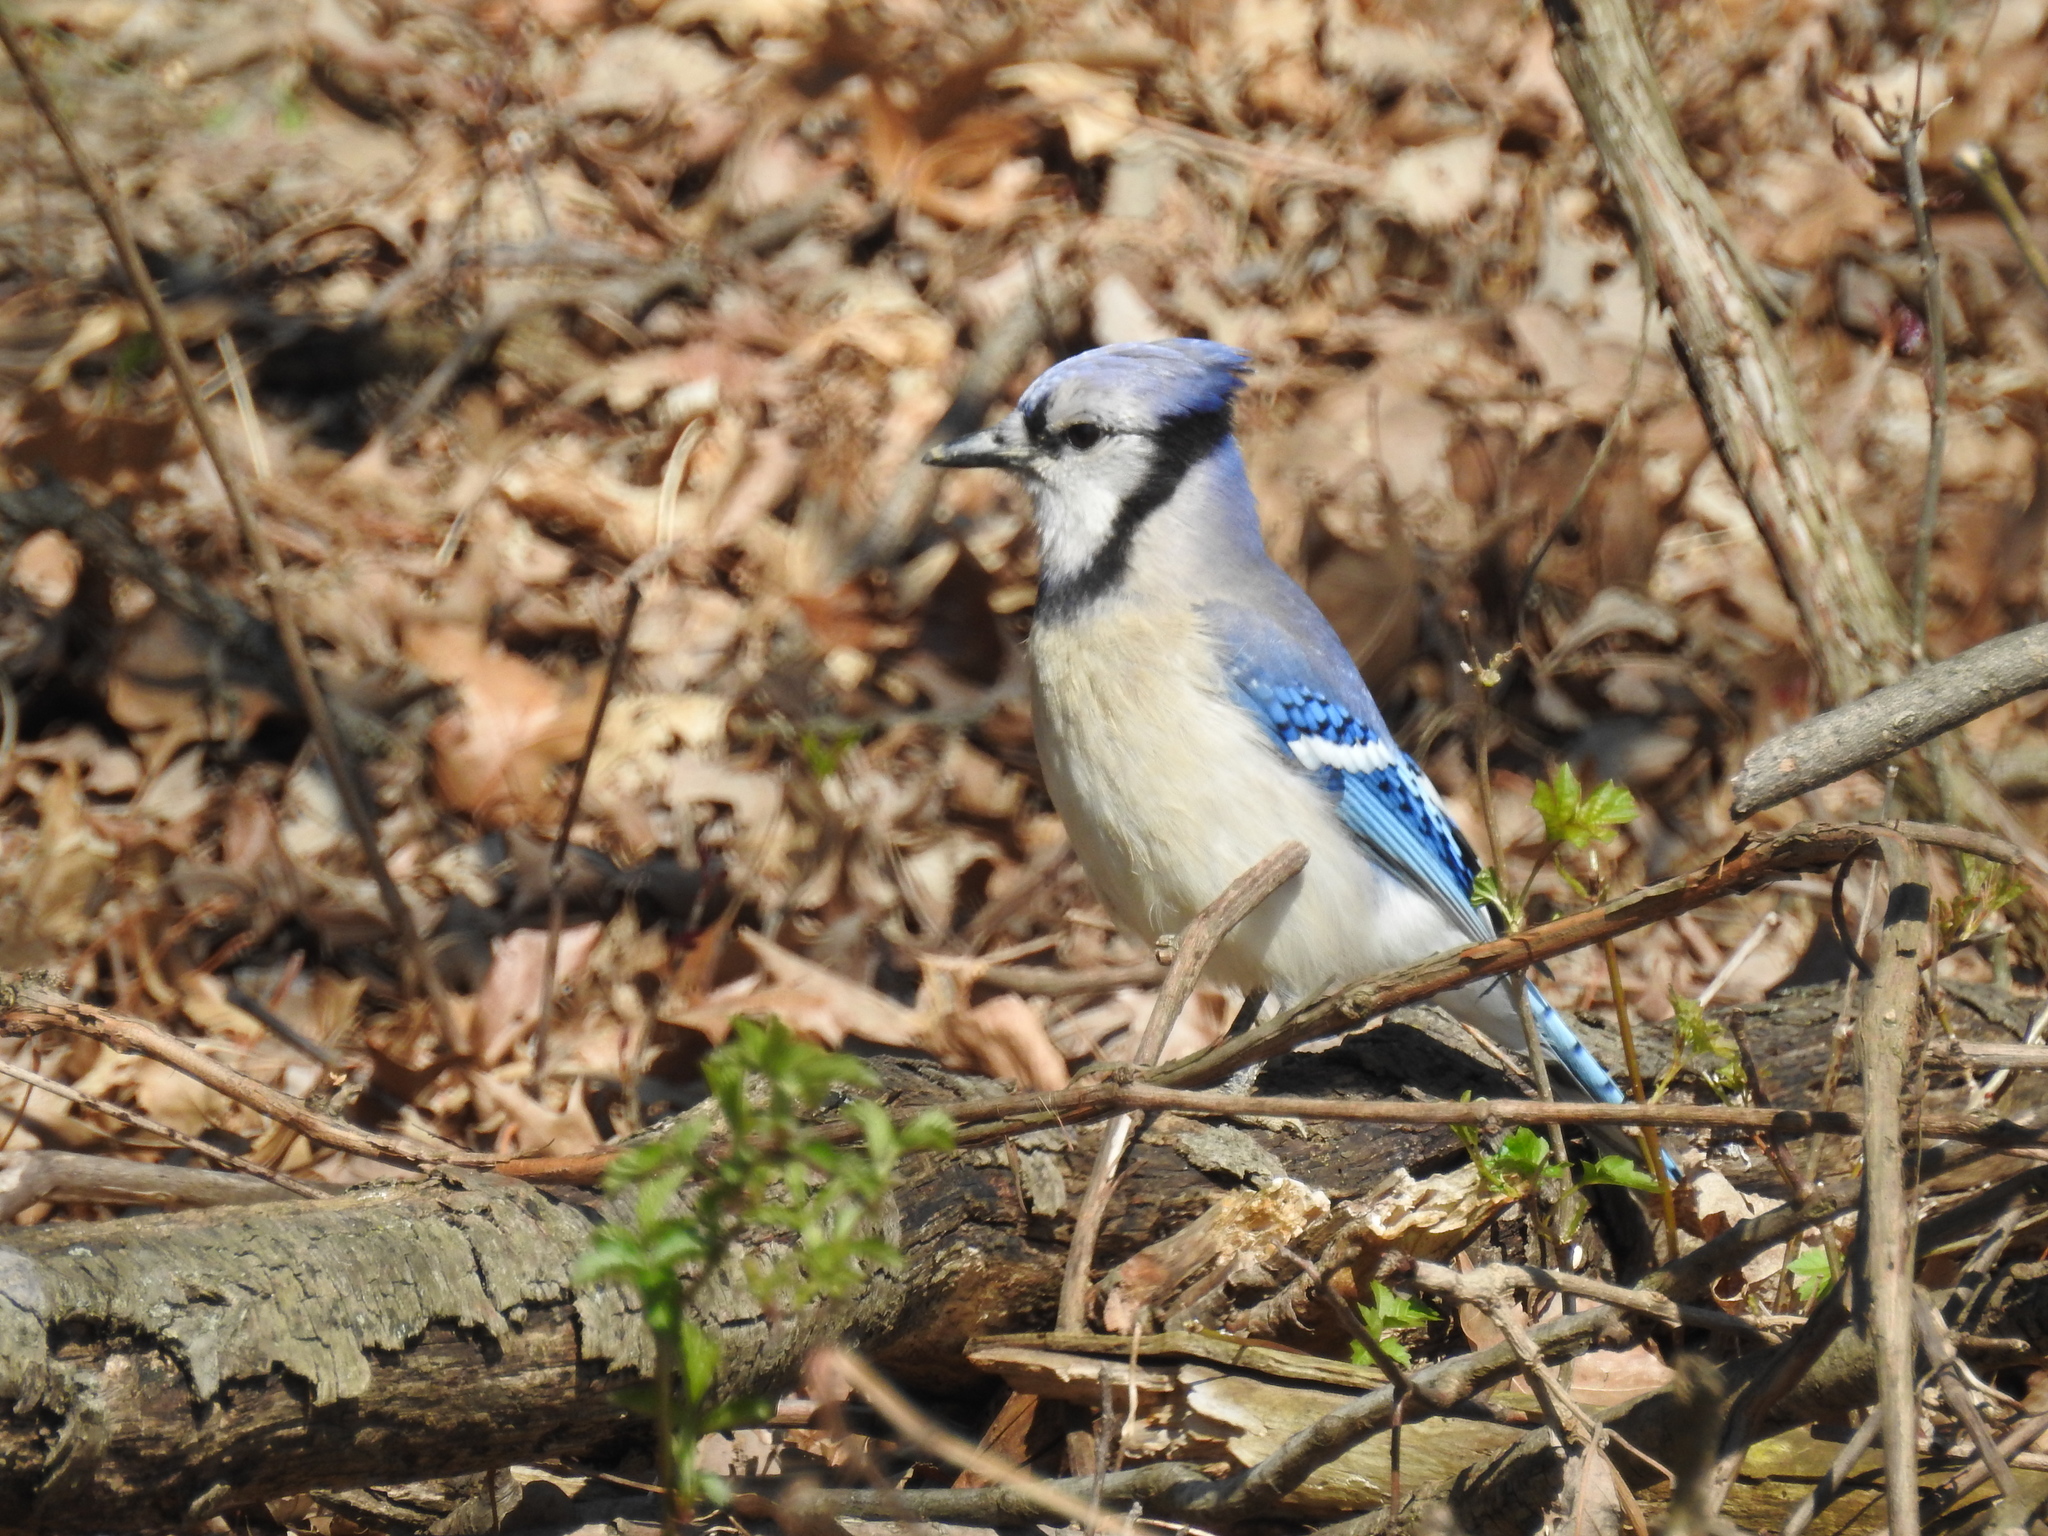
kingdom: Animalia
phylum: Chordata
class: Aves
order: Passeriformes
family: Corvidae
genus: Cyanocitta
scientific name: Cyanocitta cristata
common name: Blue jay
